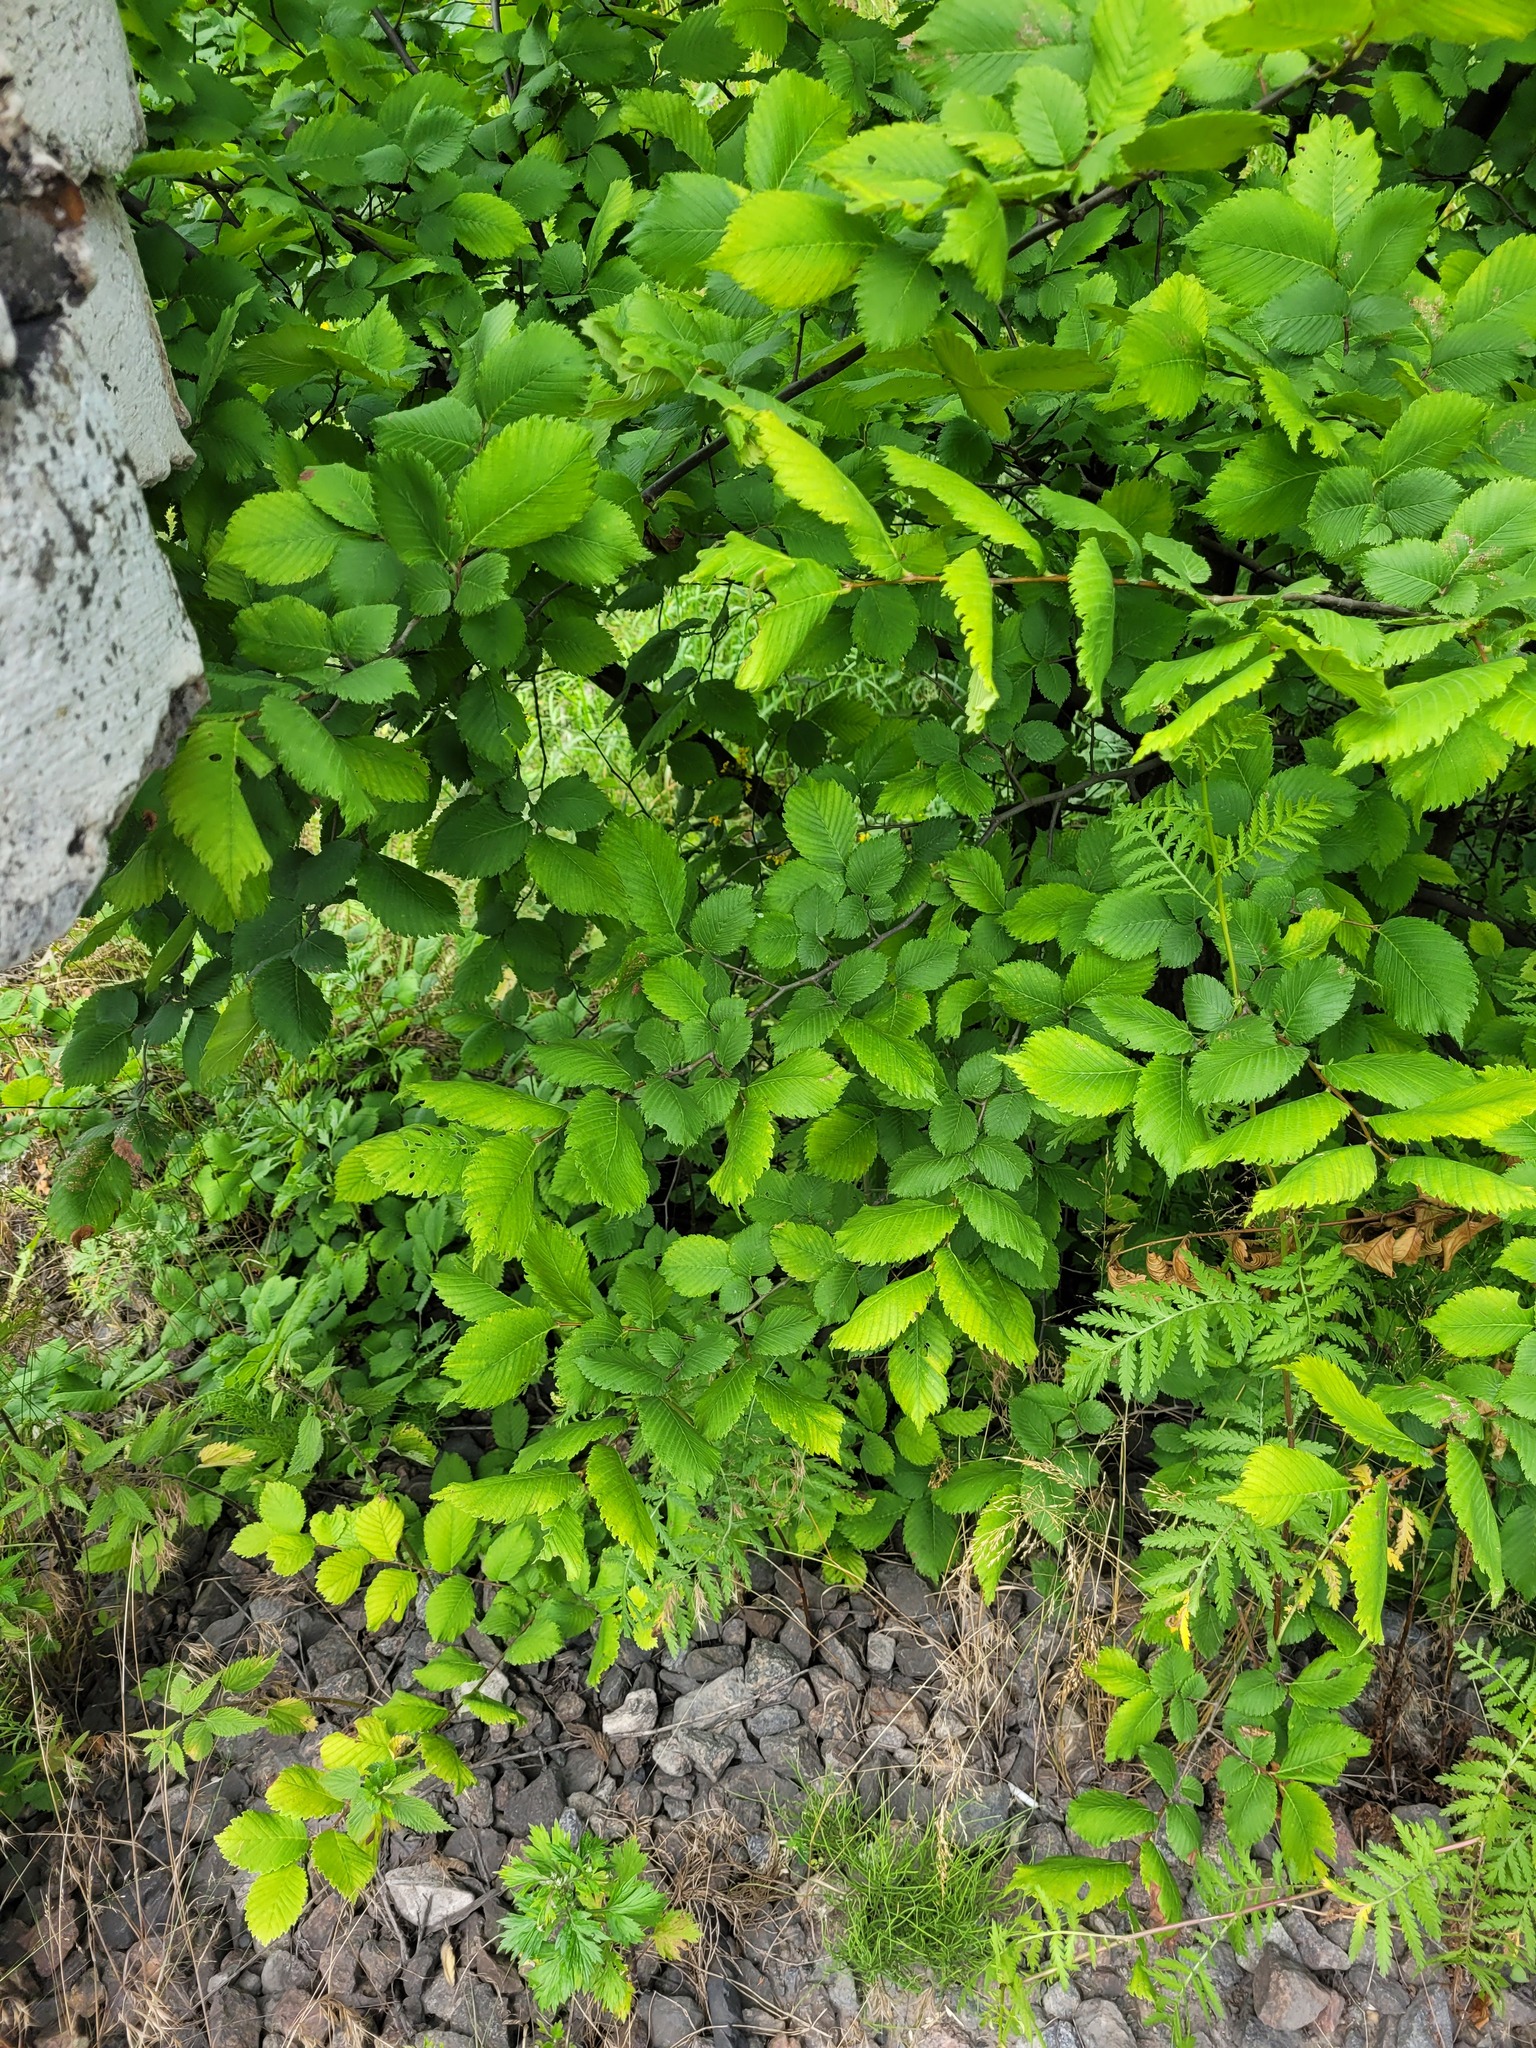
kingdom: Plantae
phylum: Tracheophyta
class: Magnoliopsida
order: Rosales
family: Ulmaceae
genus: Ulmus
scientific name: Ulmus laevis
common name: European white-elm
